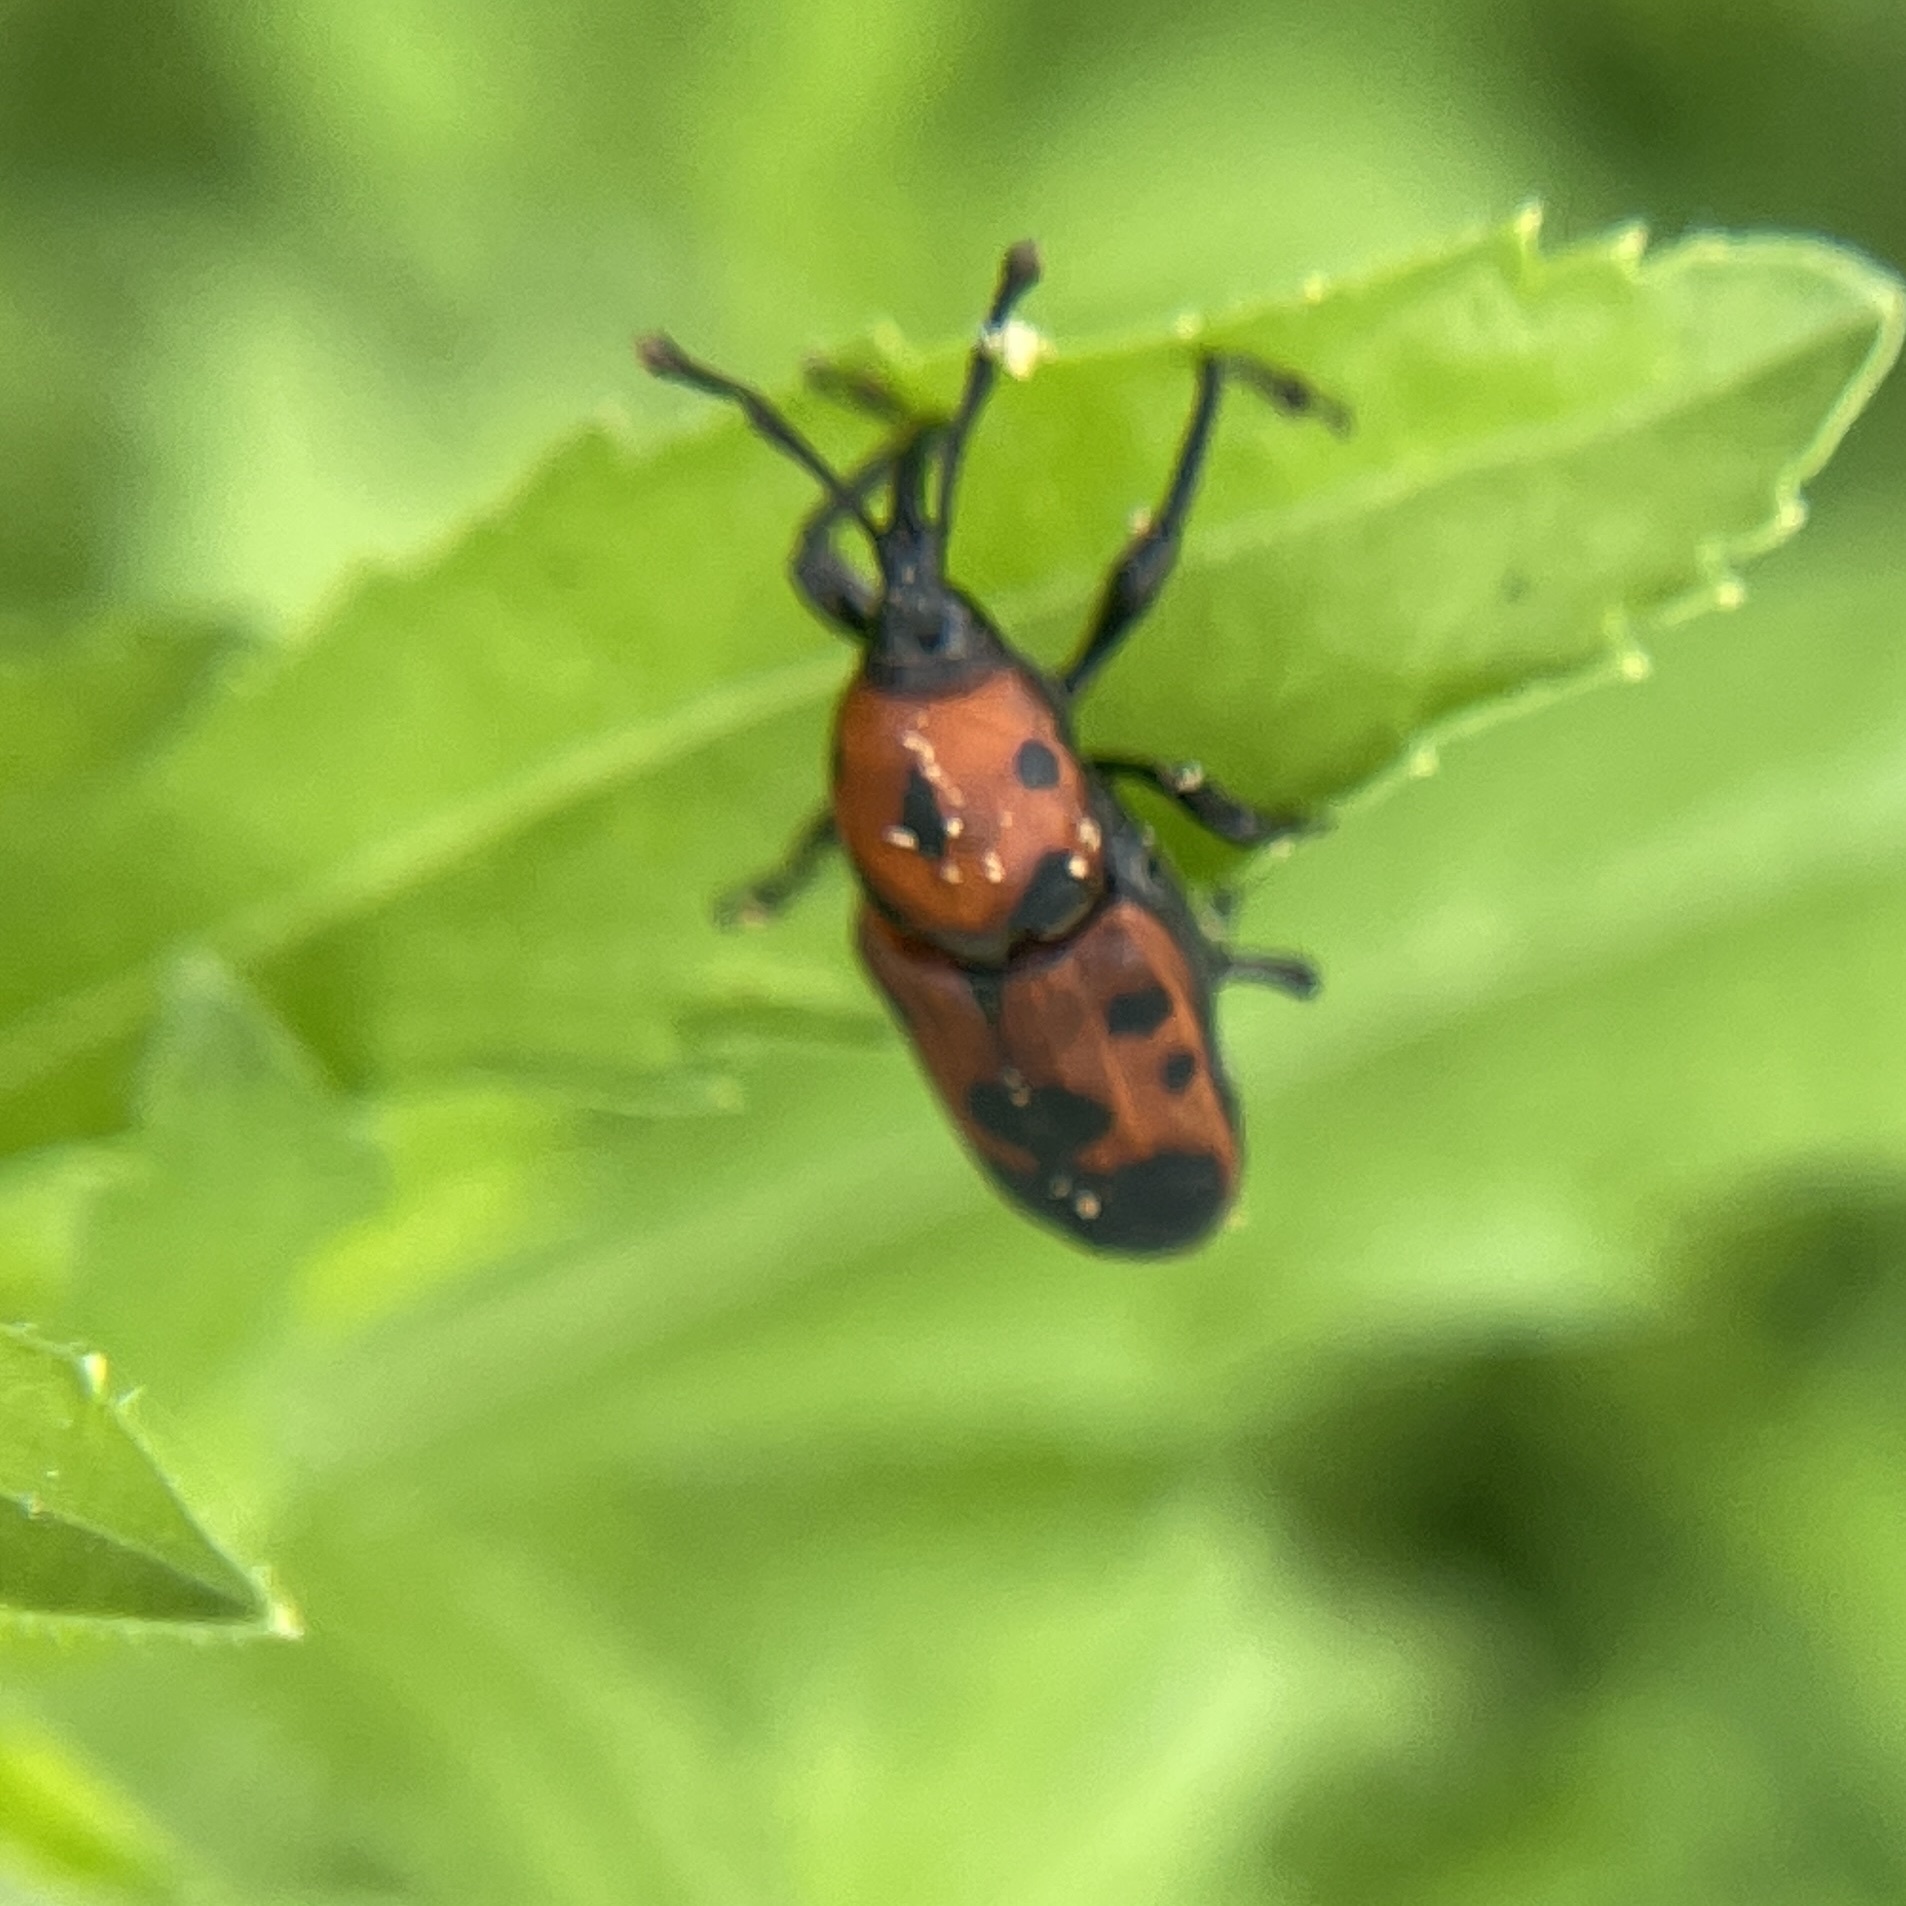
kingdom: Animalia
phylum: Arthropoda
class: Insecta
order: Coleoptera
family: Dryophthoridae
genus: Rhodobaenus
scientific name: Rhodobaenus quinquepunctatus
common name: Cocklebur weevil
